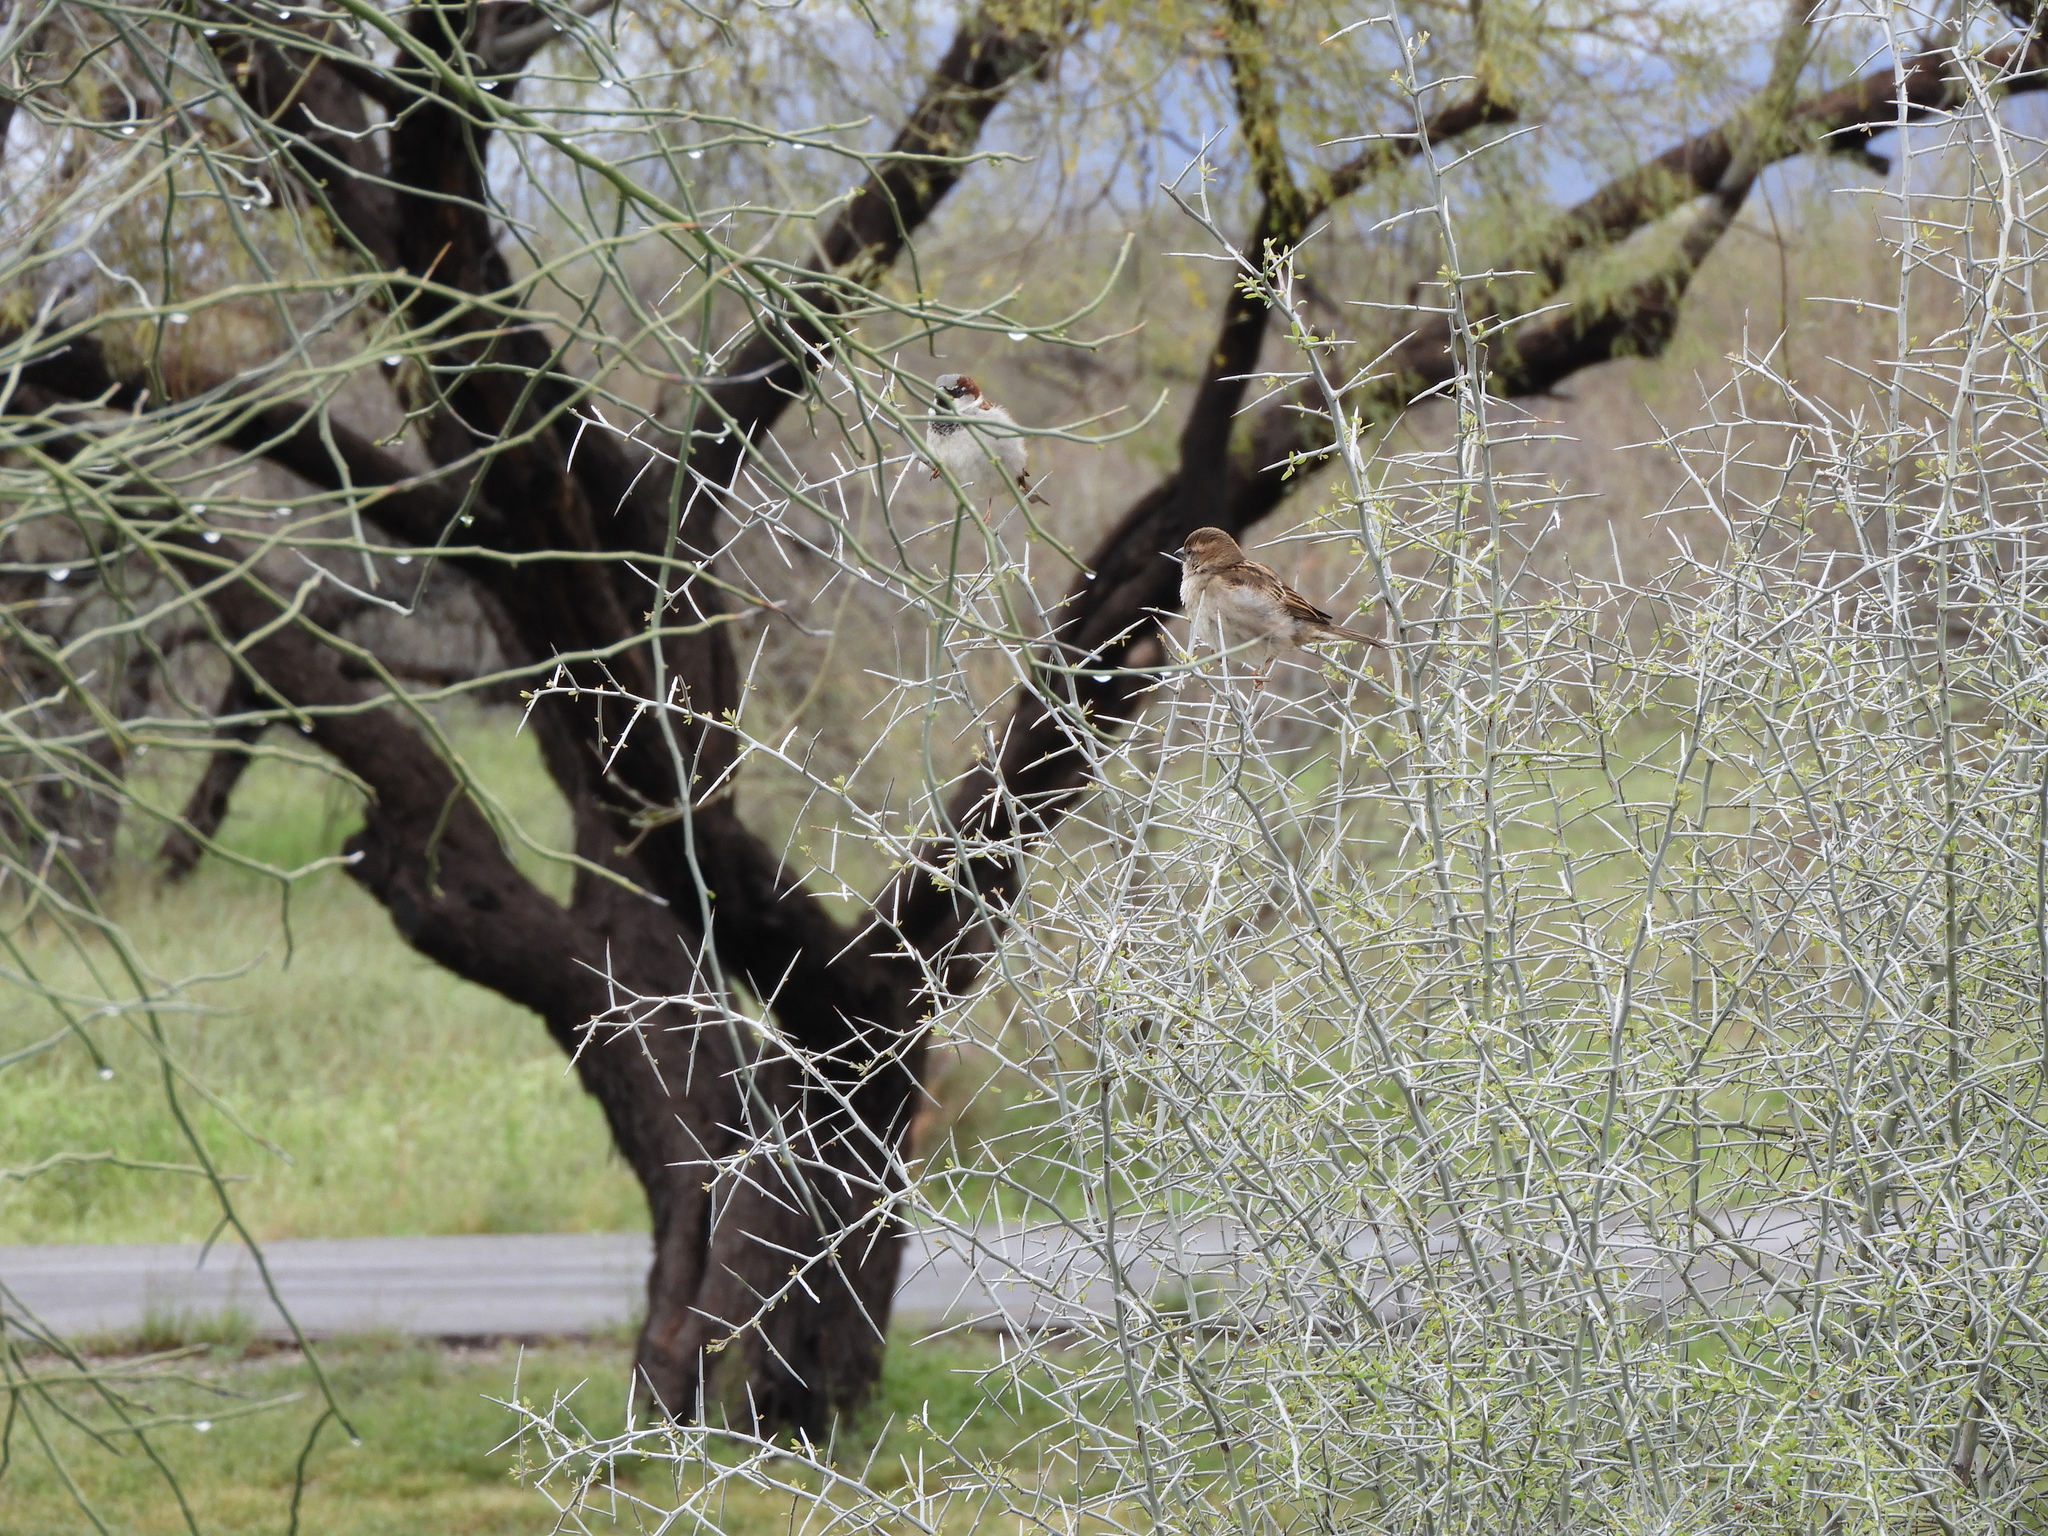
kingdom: Animalia
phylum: Chordata
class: Aves
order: Passeriformes
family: Passeridae
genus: Passer
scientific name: Passer domesticus
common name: House sparrow
